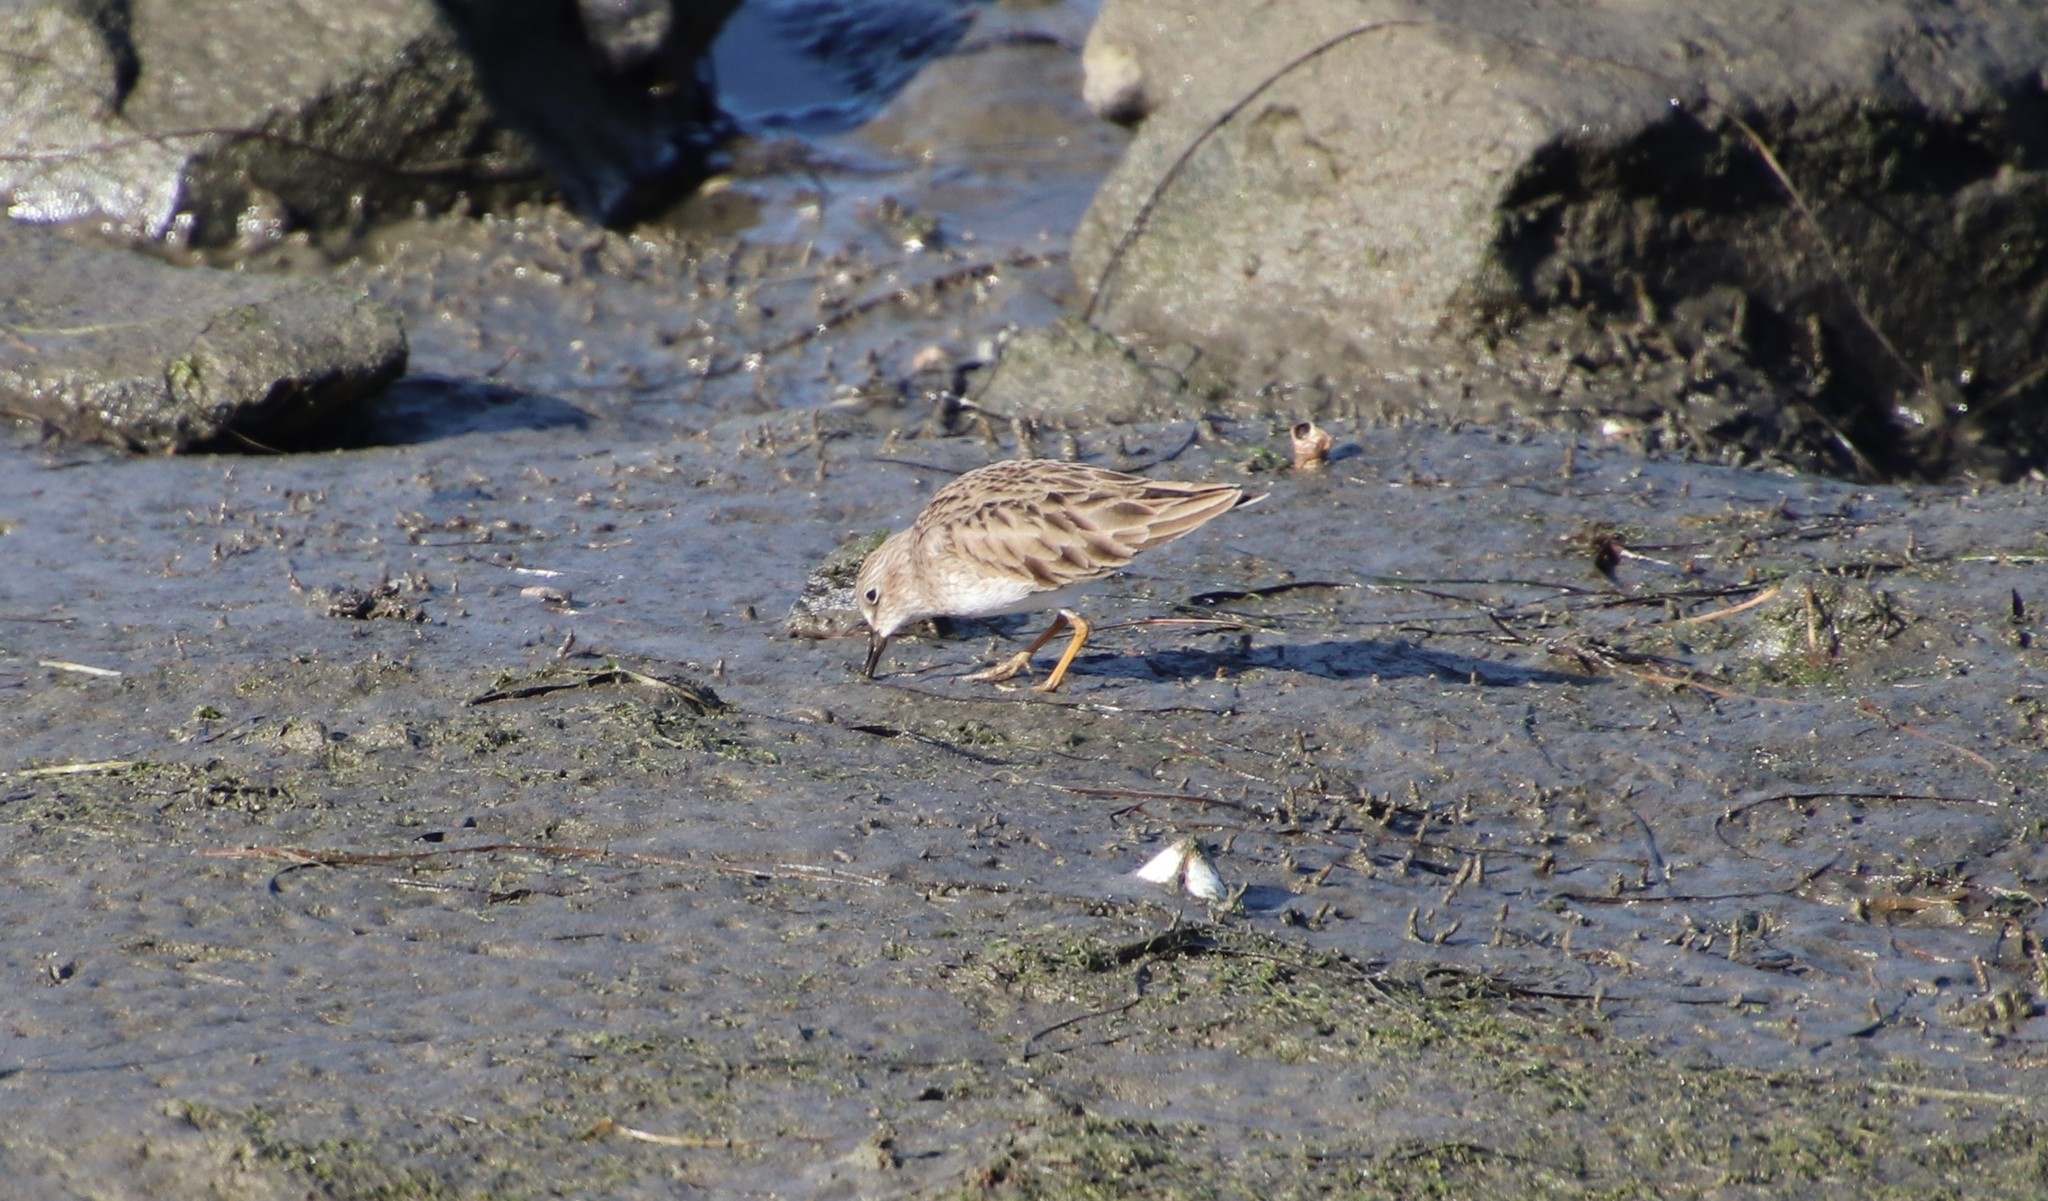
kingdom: Animalia
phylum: Chordata
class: Aves
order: Charadriiformes
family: Scolopacidae
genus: Calidris
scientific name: Calidris minutilla
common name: Least sandpiper
